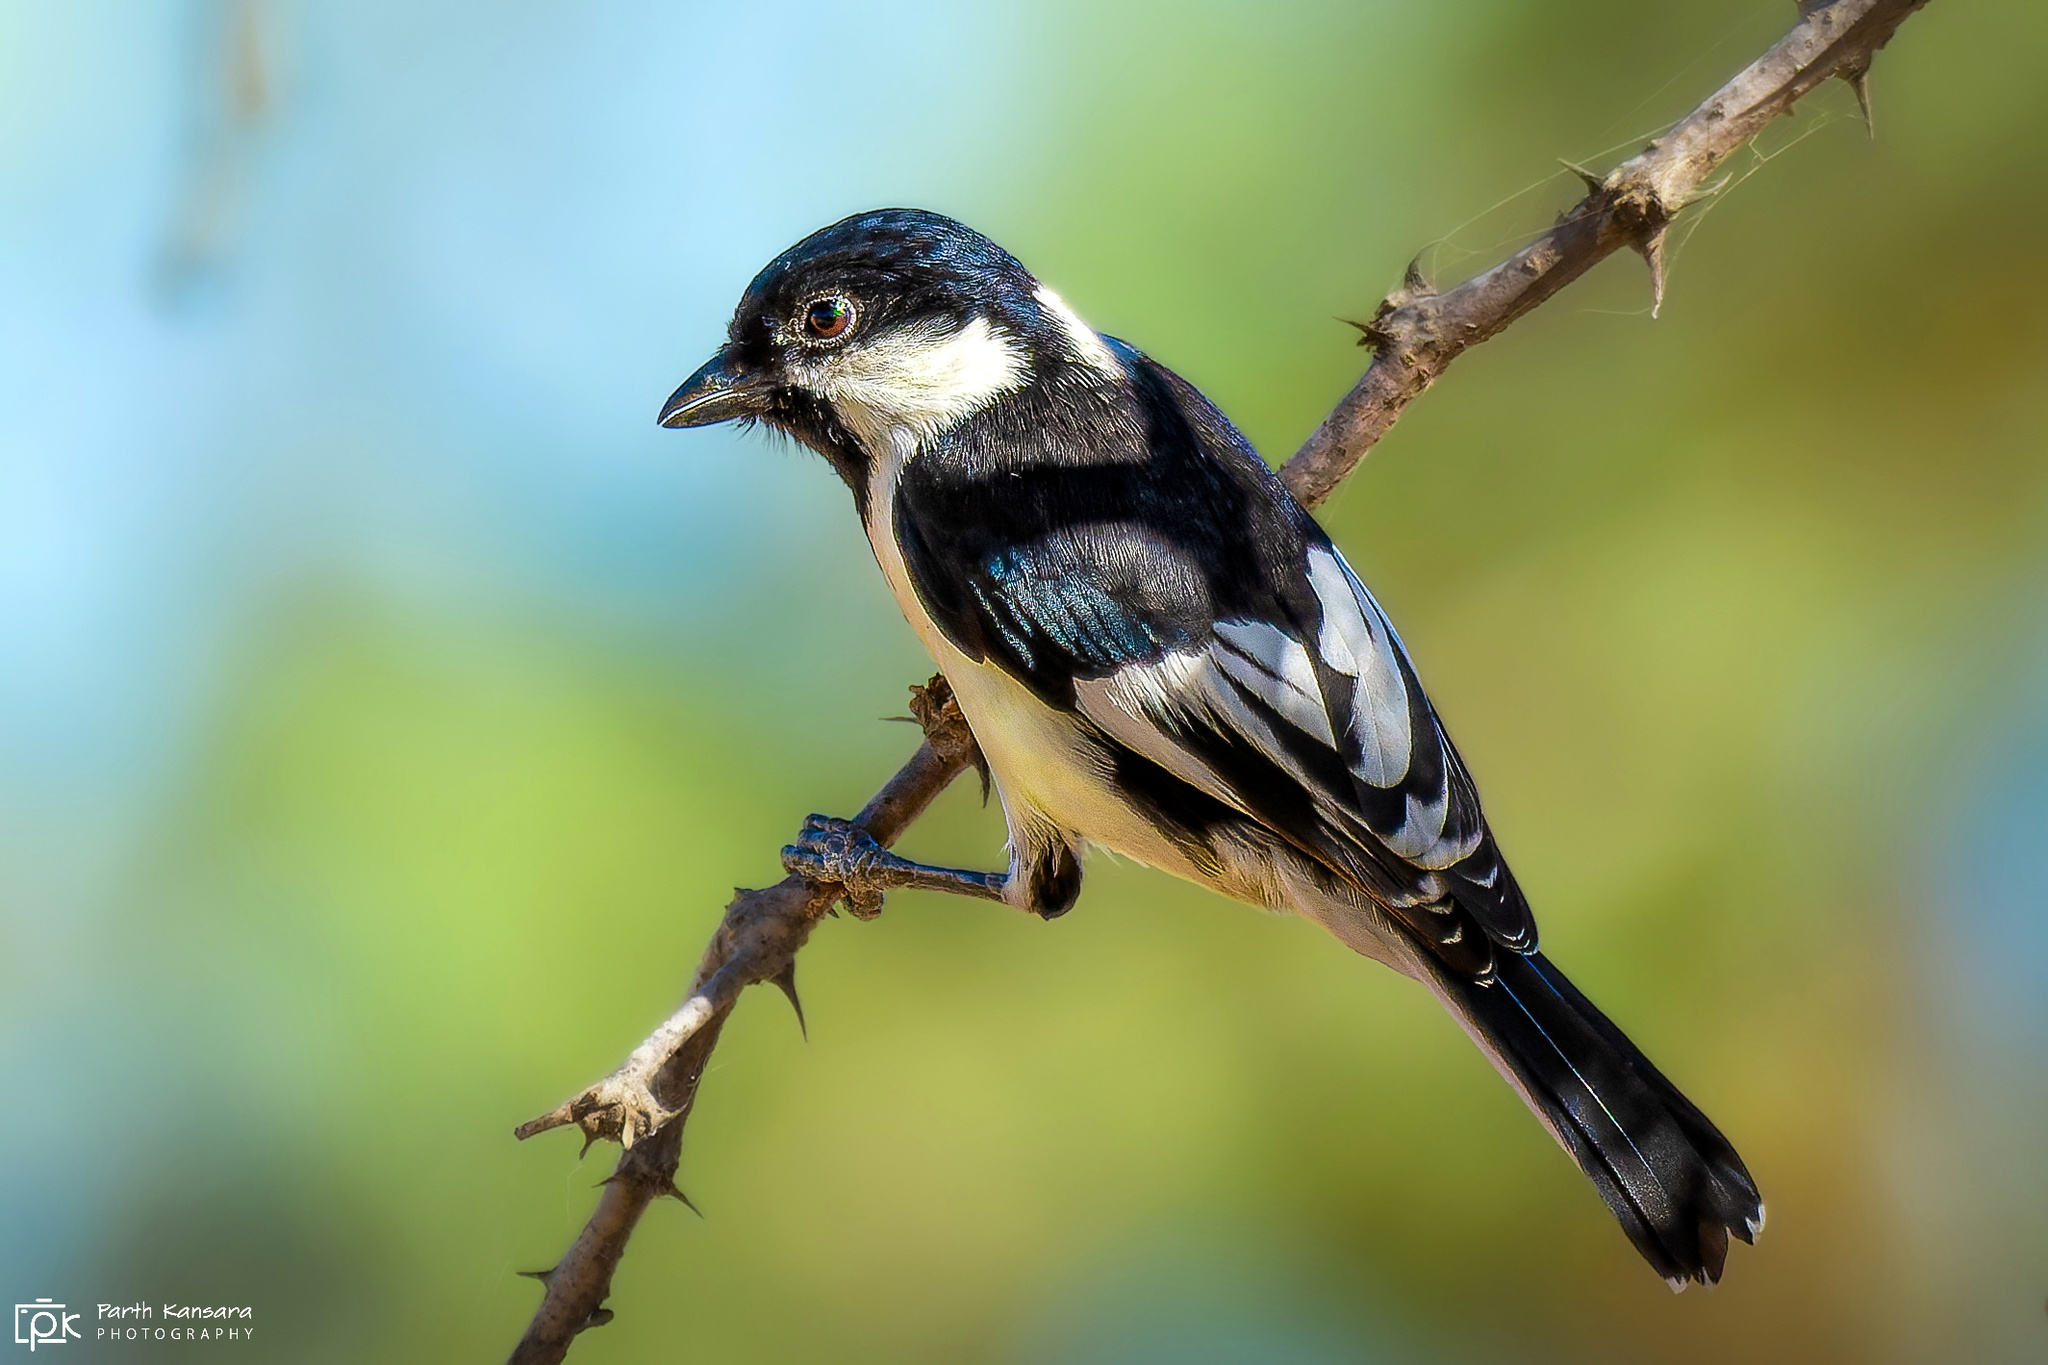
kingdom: Animalia
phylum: Chordata
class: Aves
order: Passeriformes
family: Paridae
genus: Parus
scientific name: Parus nuchalis
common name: White-naped tit
